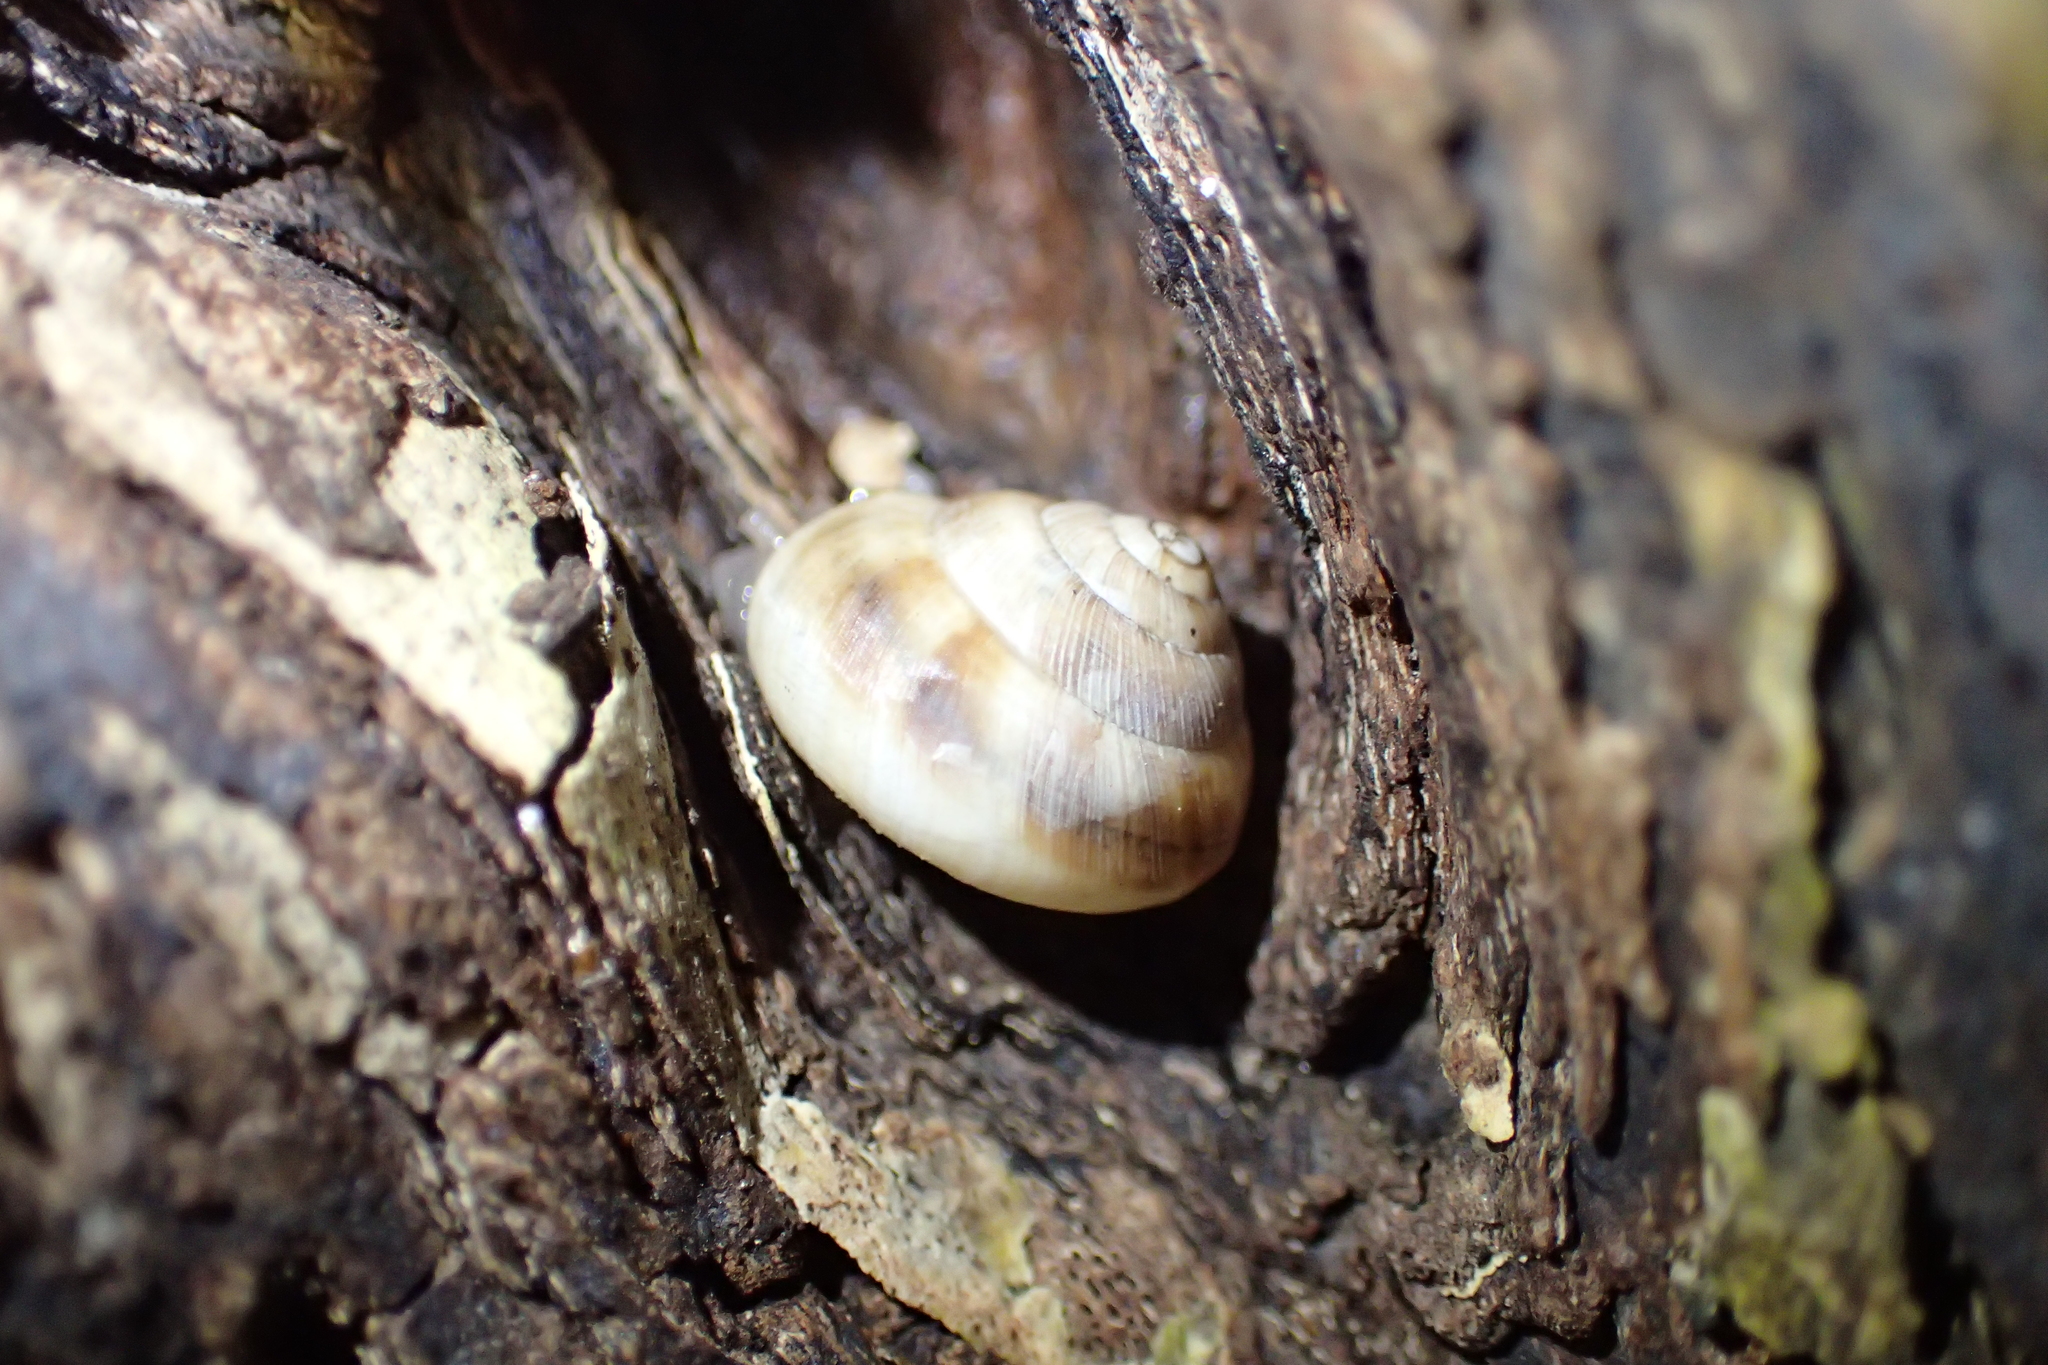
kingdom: Animalia
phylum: Mollusca
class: Gastropoda
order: Stylommatophora
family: Charopidae
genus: Serpho
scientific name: Serpho
